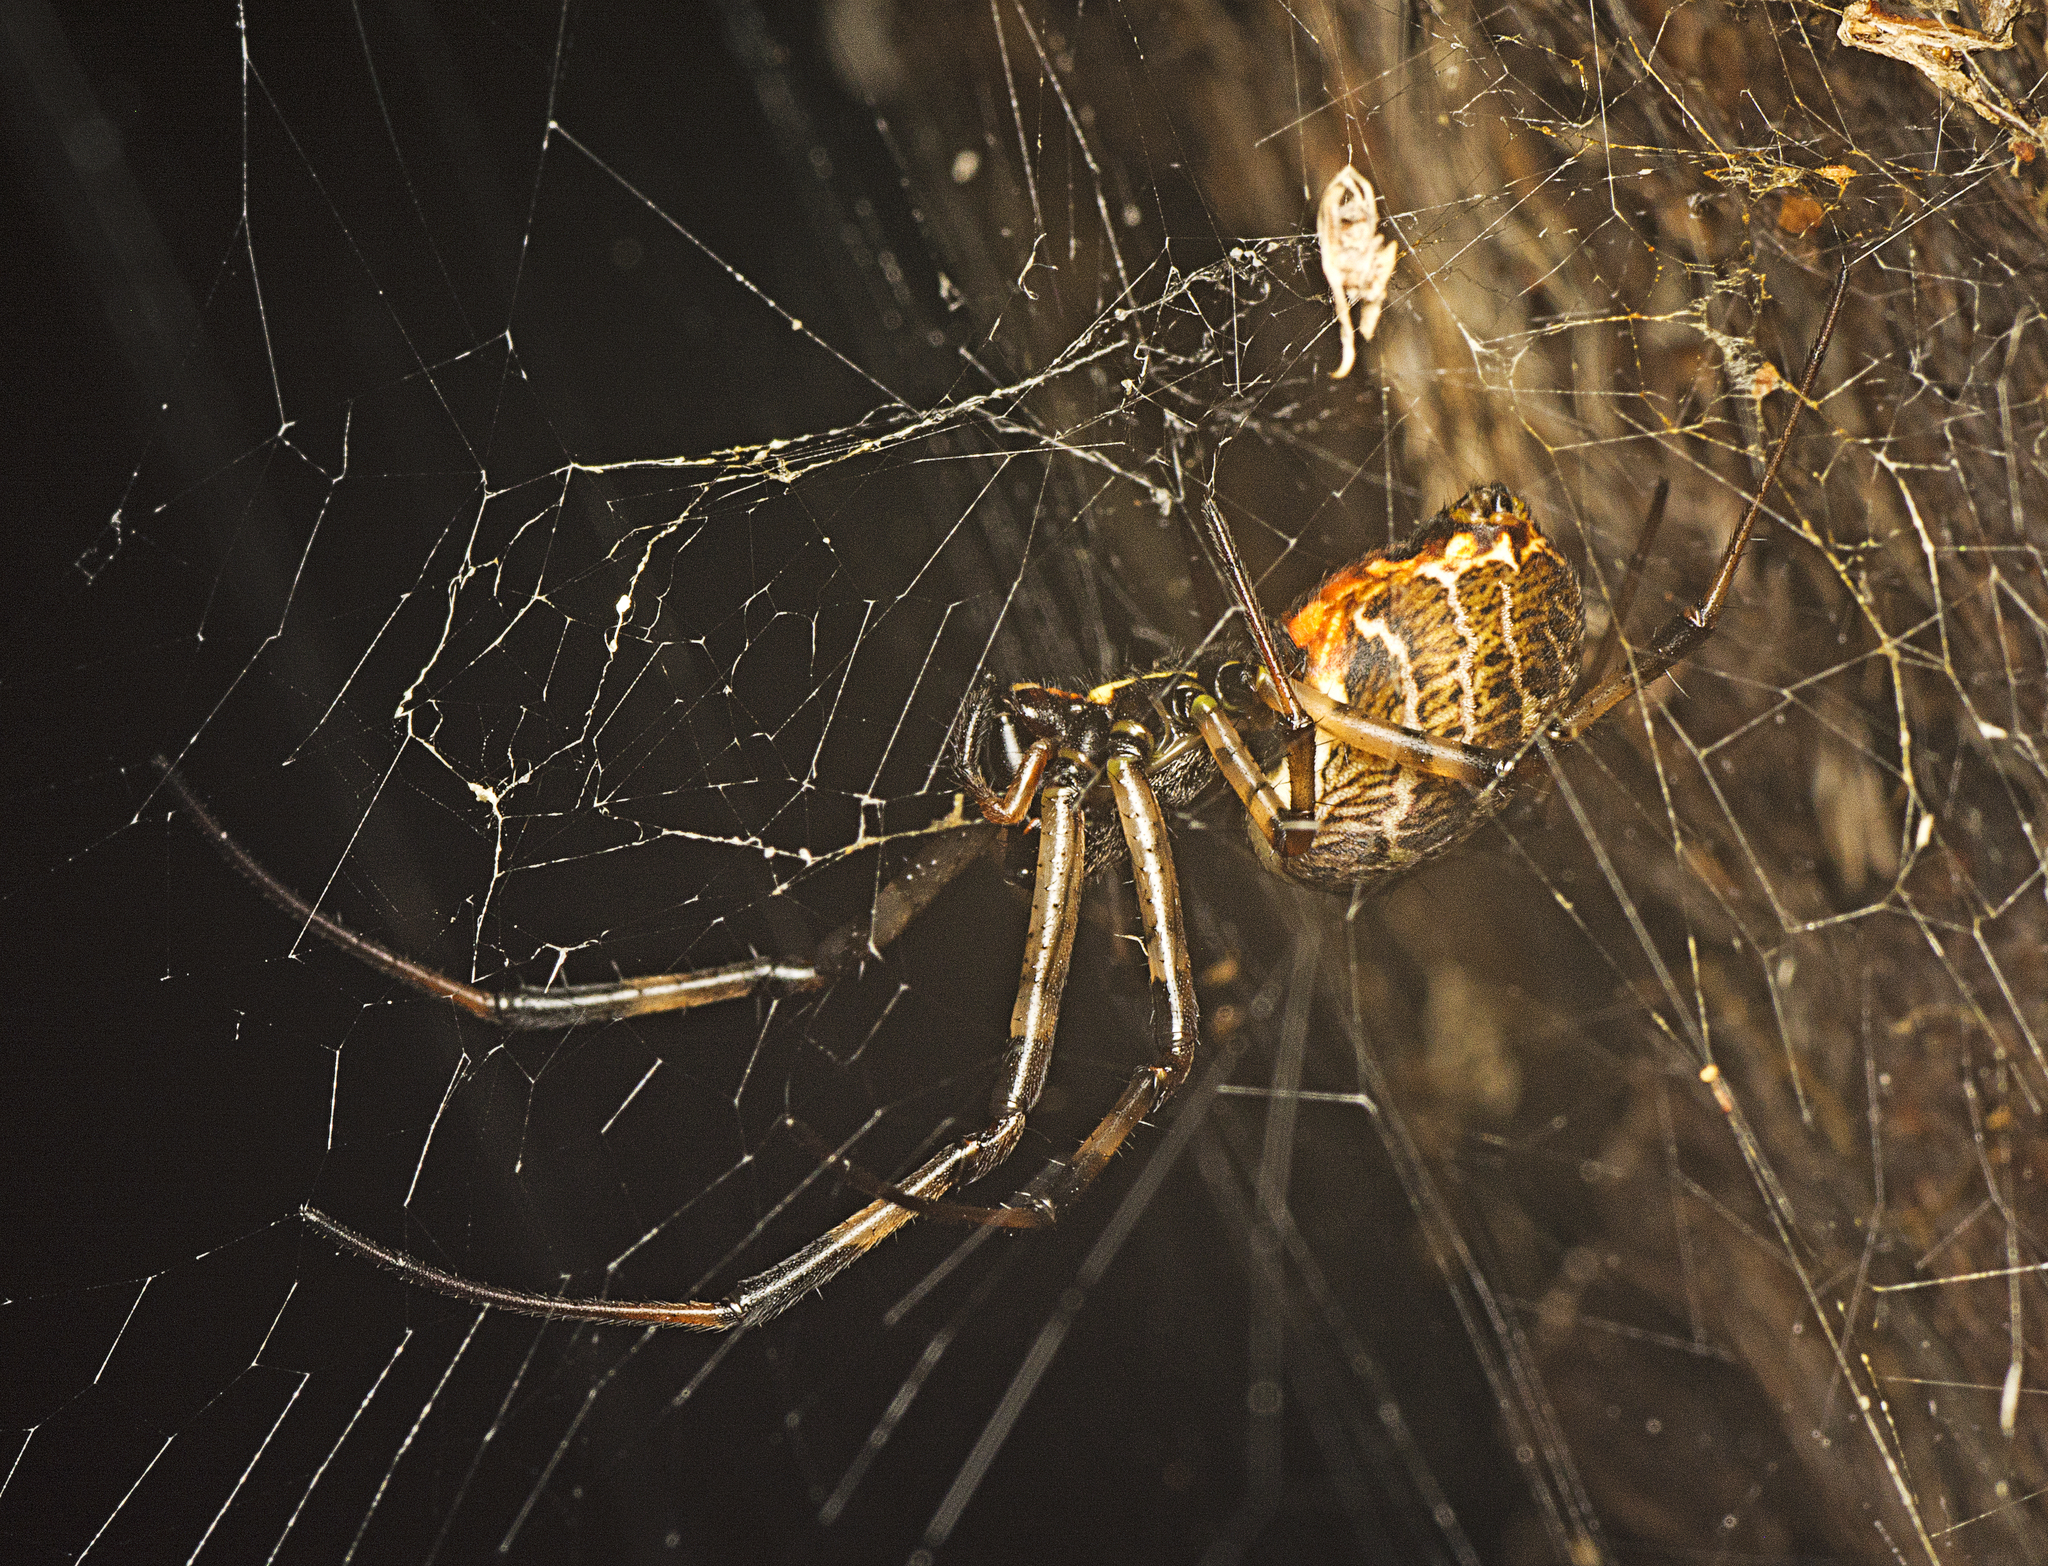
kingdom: Animalia
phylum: Arthropoda
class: Arachnida
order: Araneae
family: Araneidae
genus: Nephilengys
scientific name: Nephilengys papuana
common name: Papuan hermit spider
